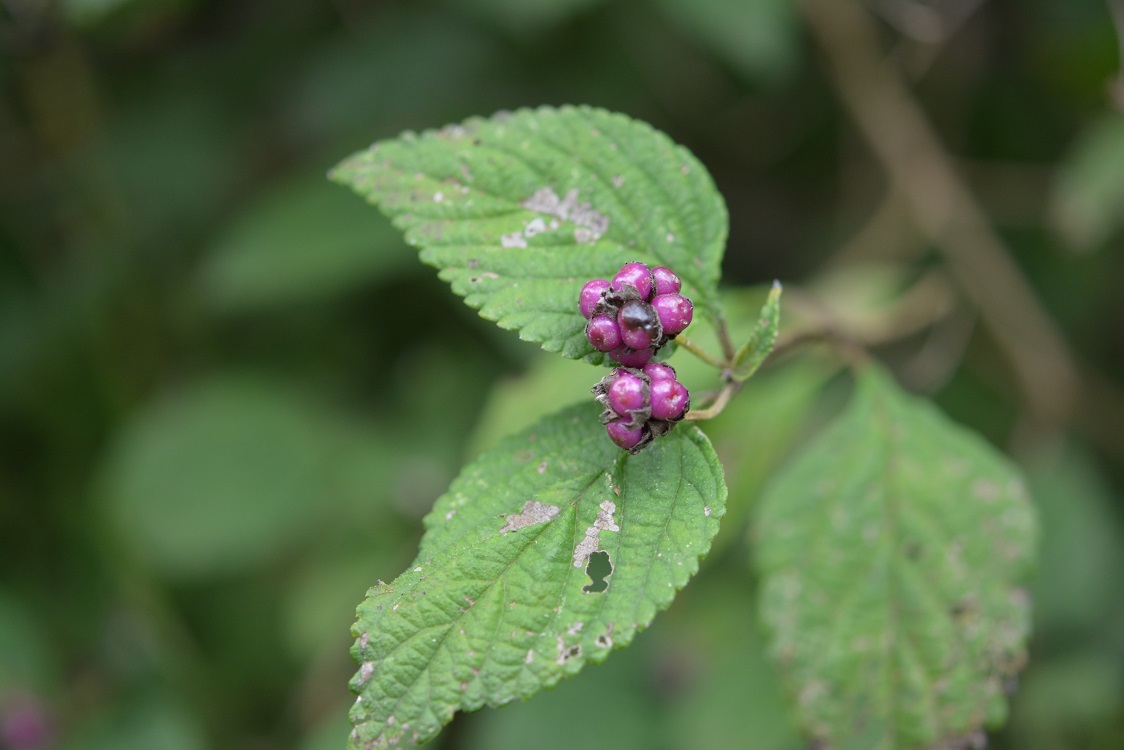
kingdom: Plantae
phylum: Tracheophyta
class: Magnoliopsida
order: Lamiales
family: Verbenaceae
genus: Lantana
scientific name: Lantana hirta
